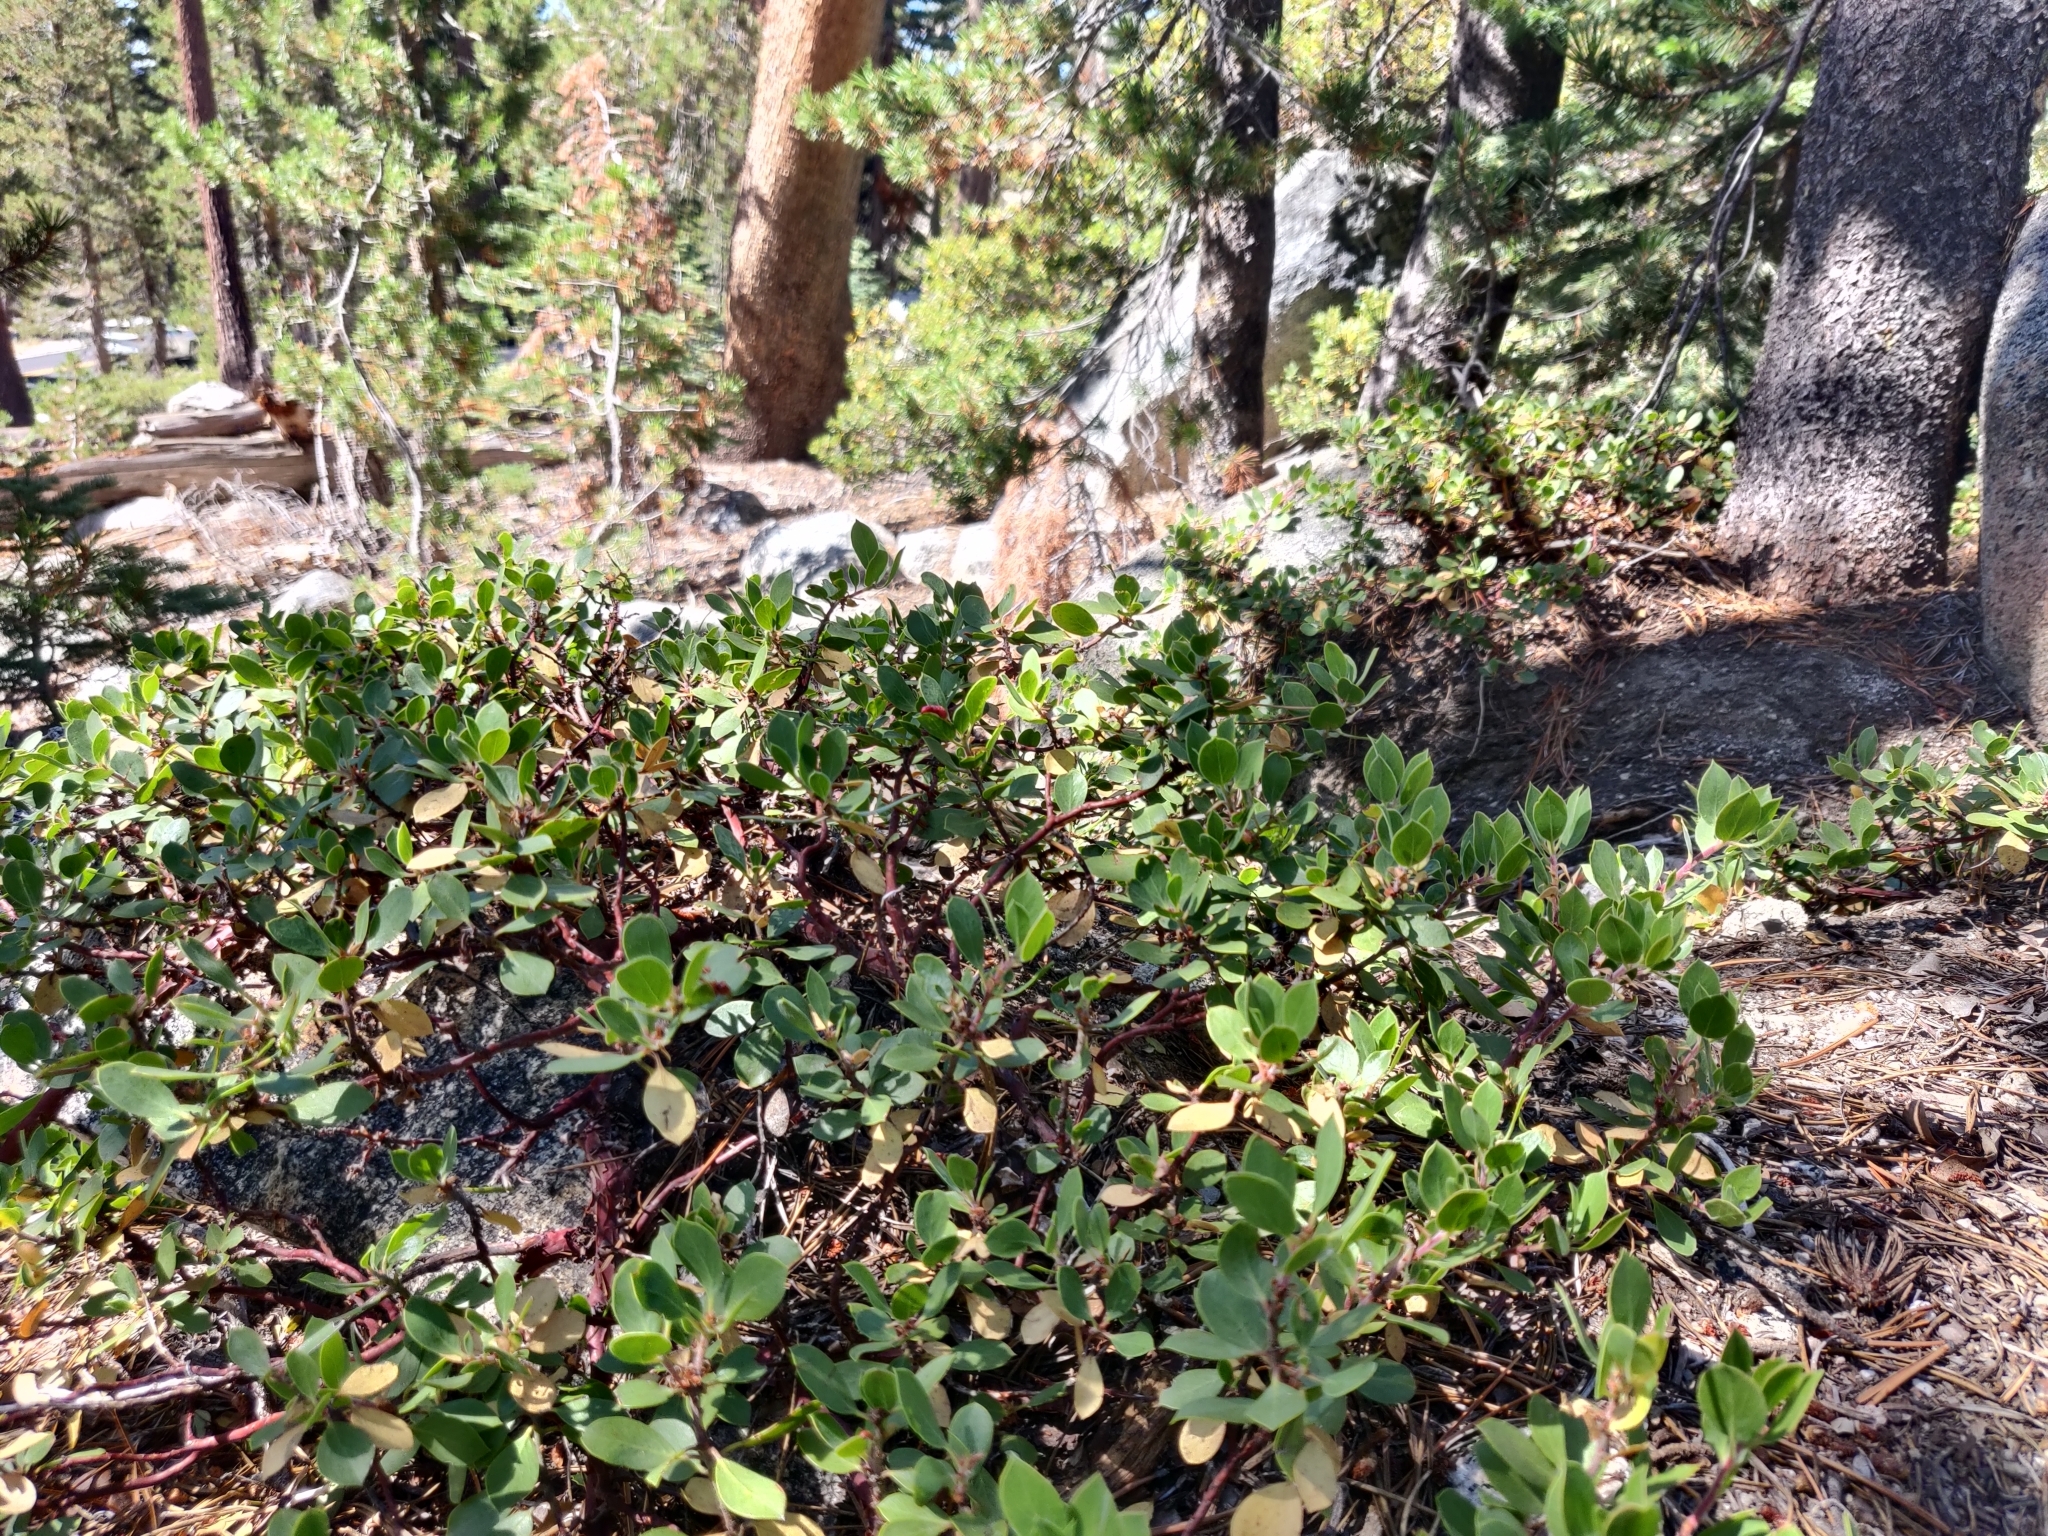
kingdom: Plantae
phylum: Tracheophyta
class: Magnoliopsida
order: Ericales
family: Ericaceae
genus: Arctostaphylos
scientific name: Arctostaphylos nevadensis
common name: Pinemat manzanita
